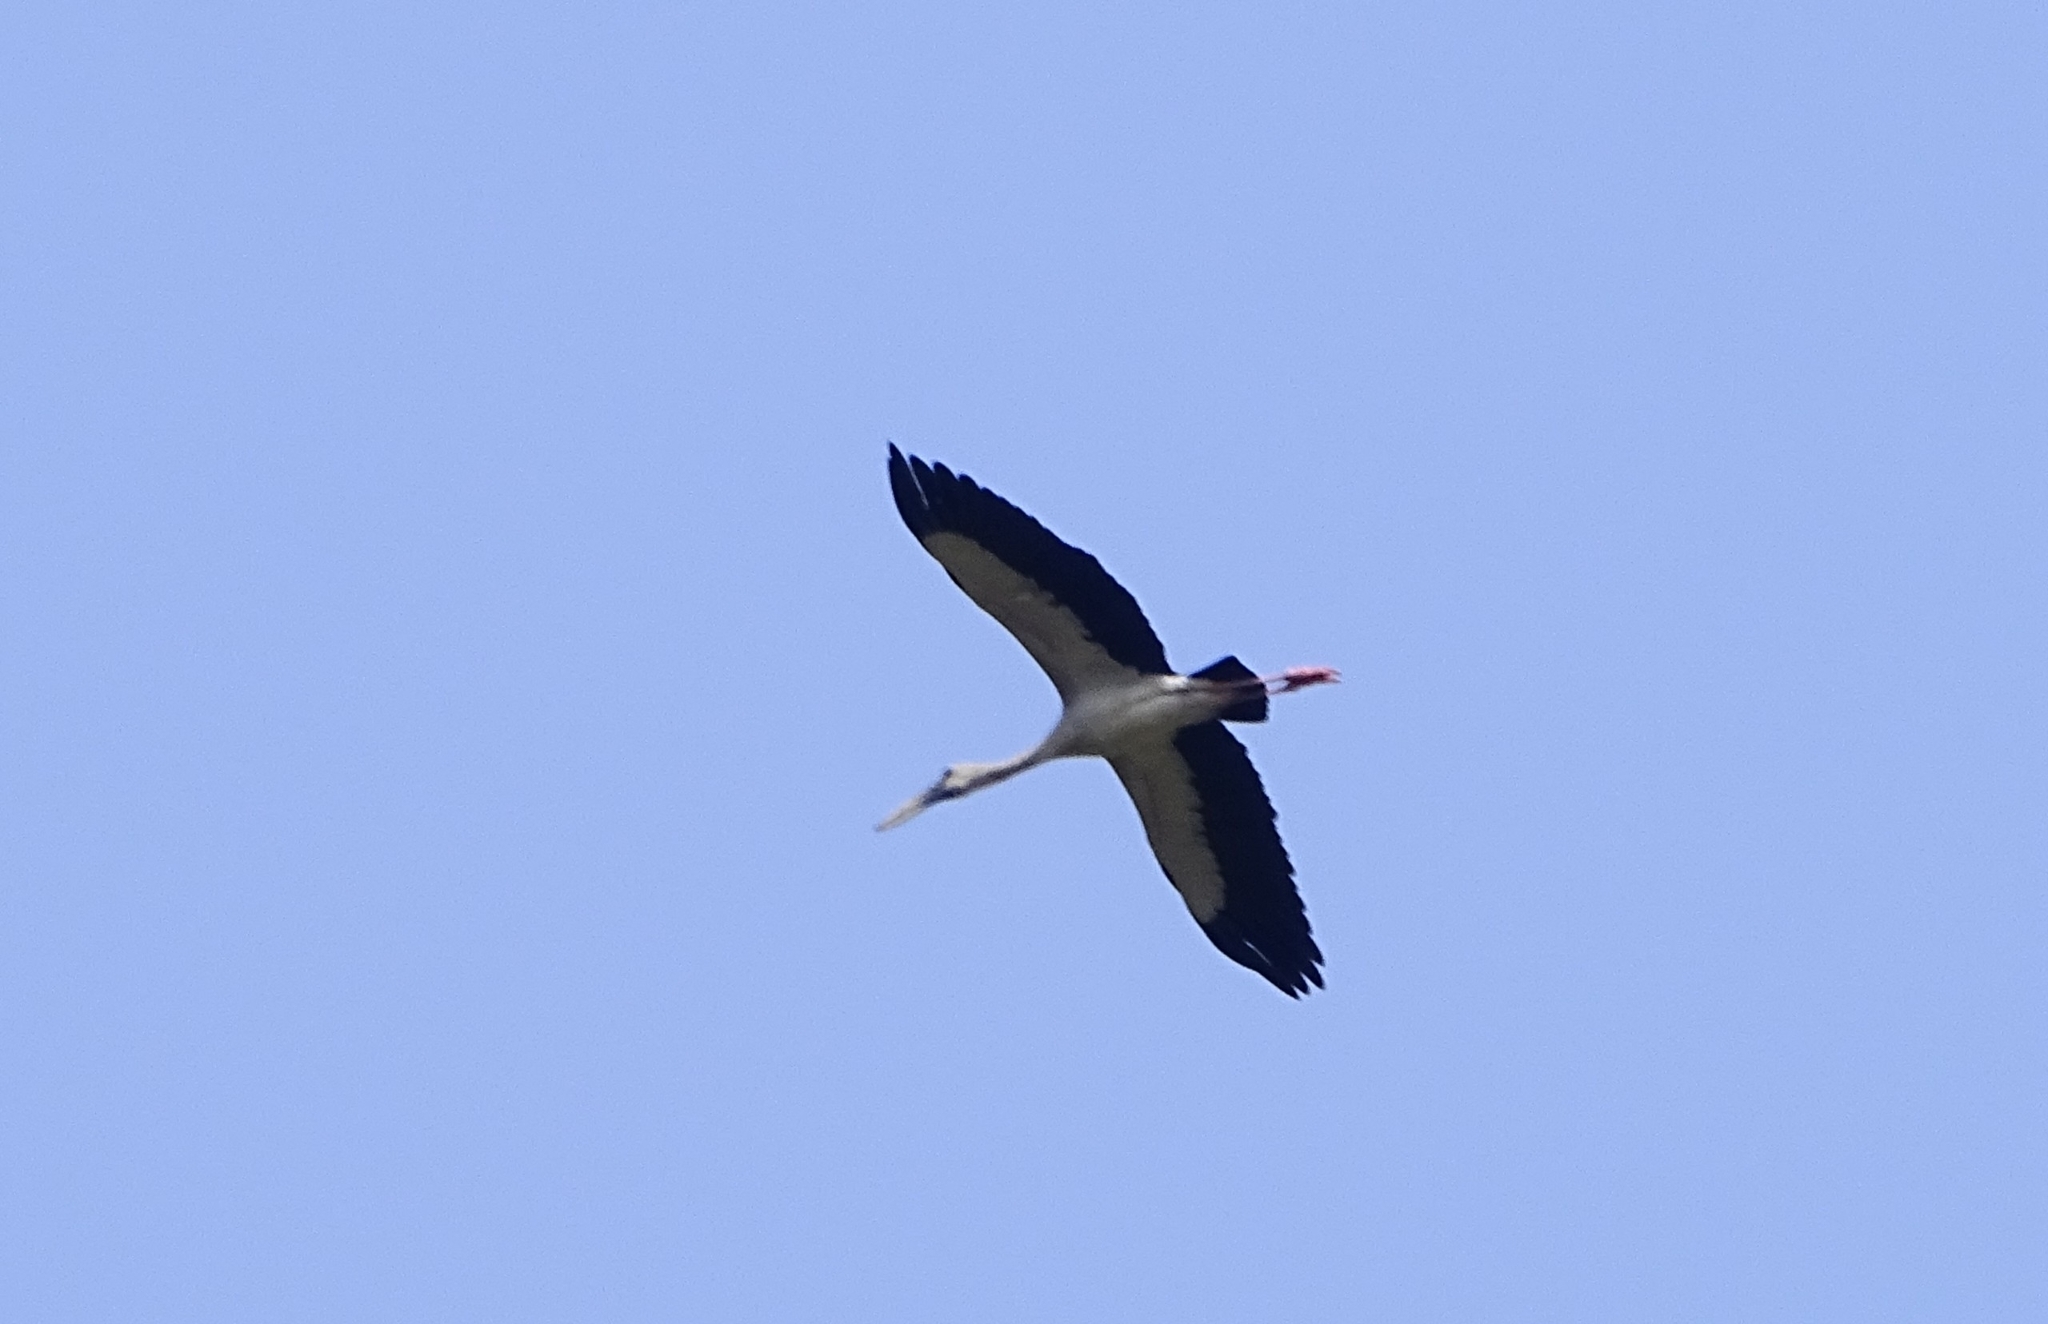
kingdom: Animalia
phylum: Chordata
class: Aves
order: Ciconiiformes
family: Ciconiidae
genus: Anastomus
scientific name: Anastomus oscitans
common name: Asian openbill
